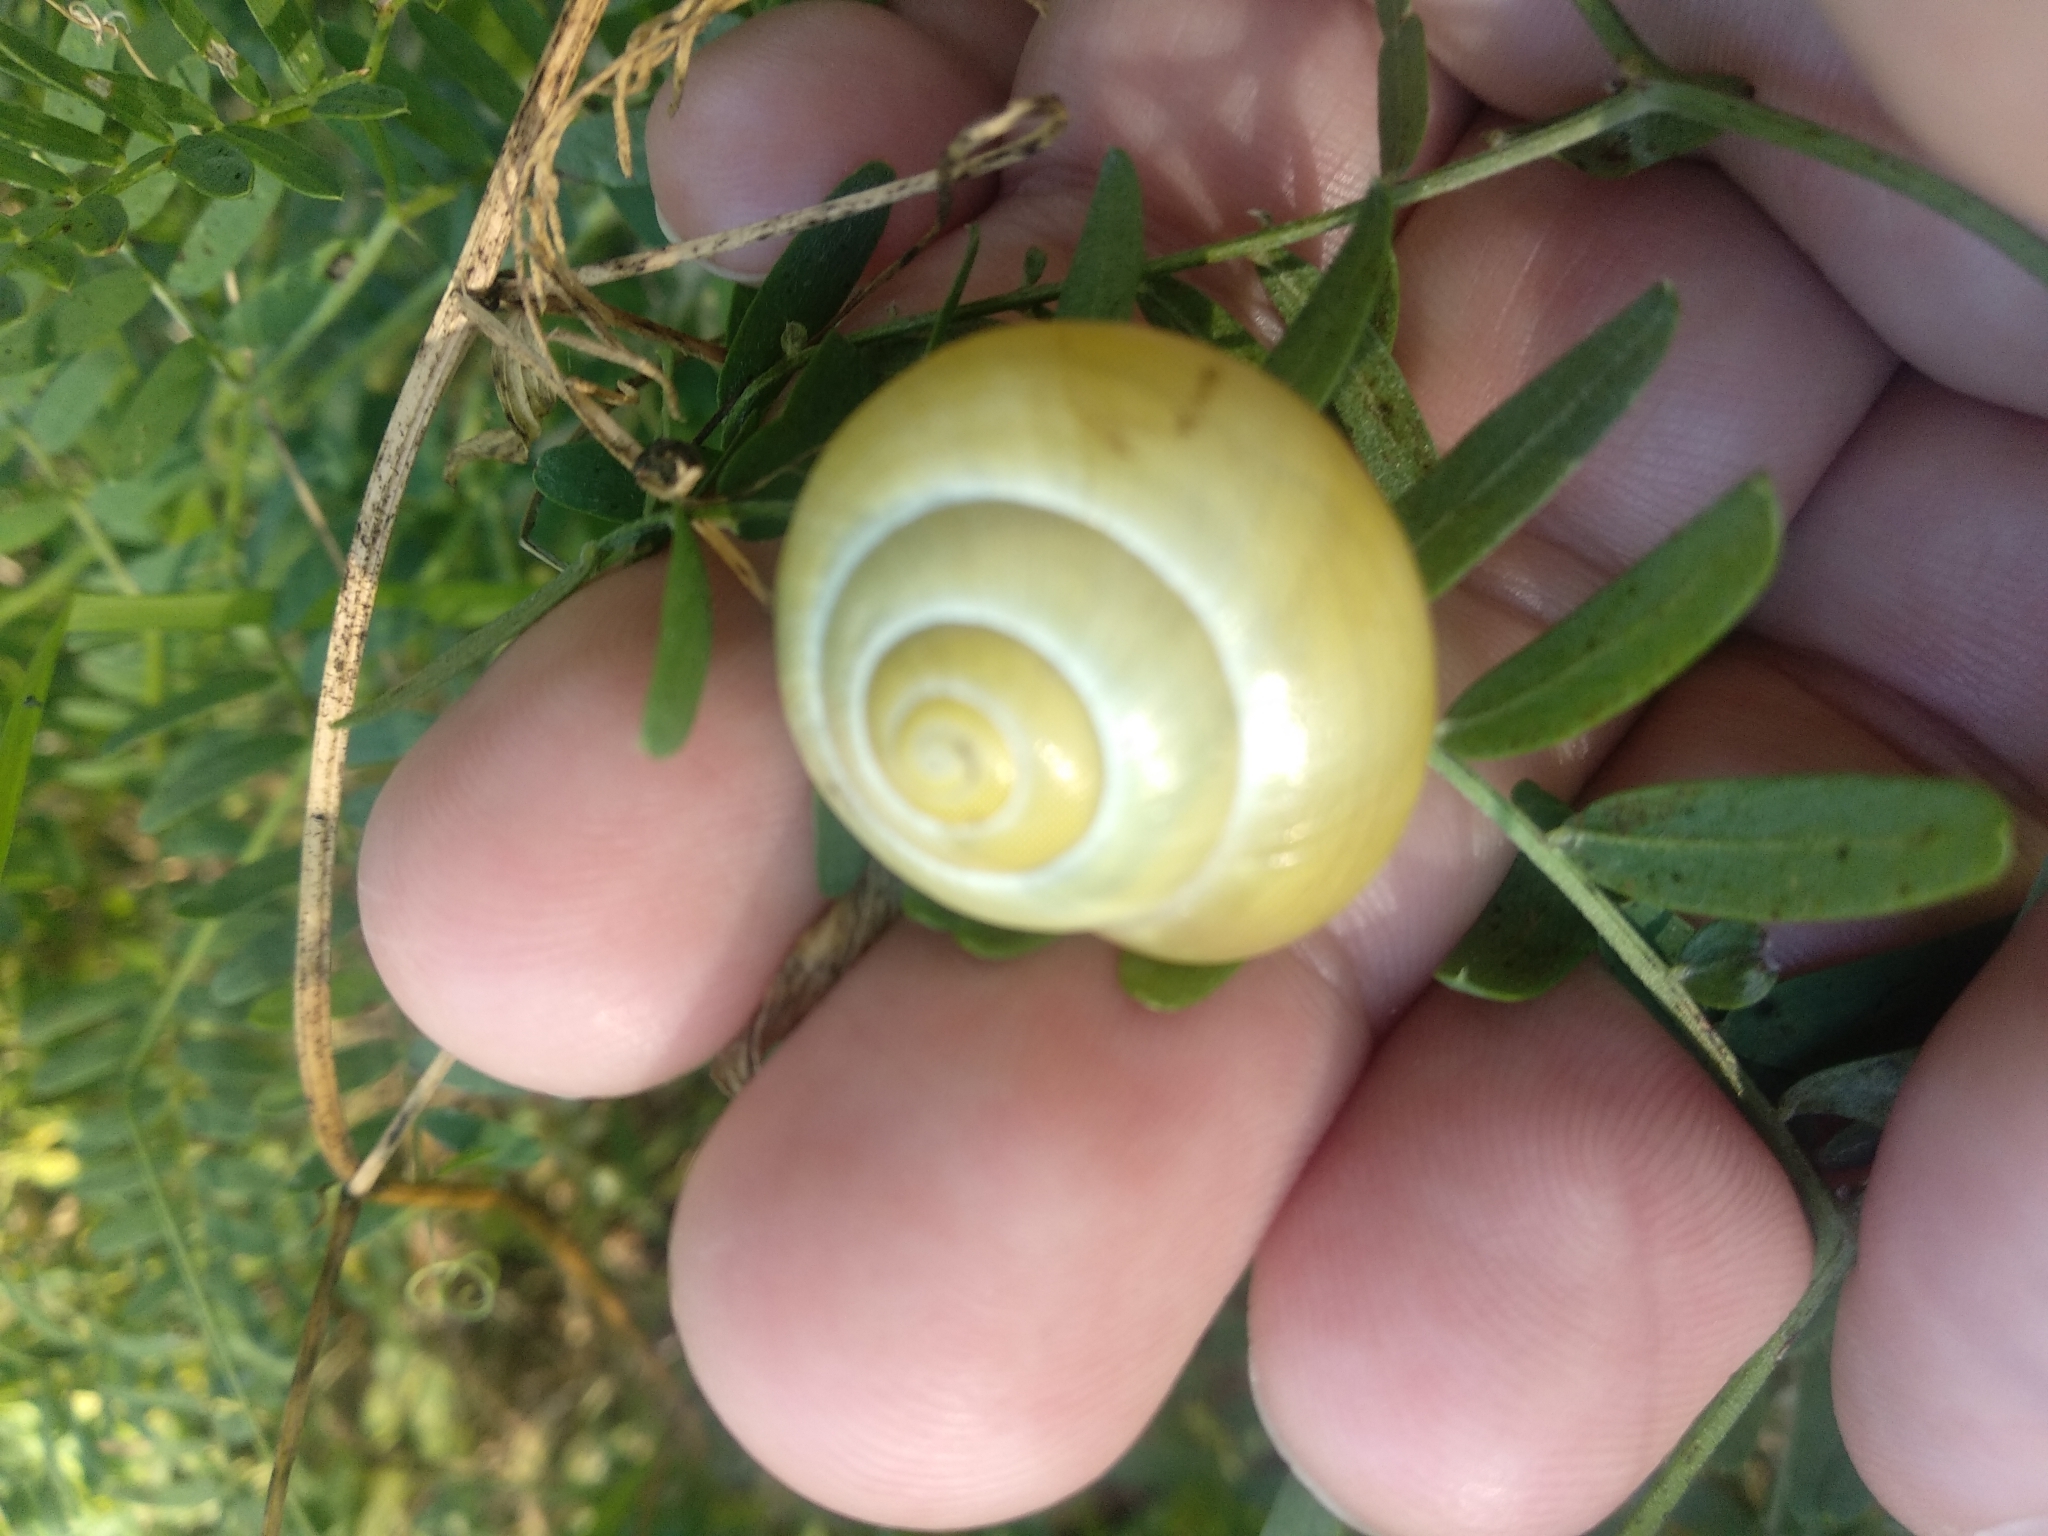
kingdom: Animalia
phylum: Mollusca
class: Gastropoda
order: Stylommatophora
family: Helicidae
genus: Cepaea
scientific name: Cepaea nemoralis
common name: Grovesnail
